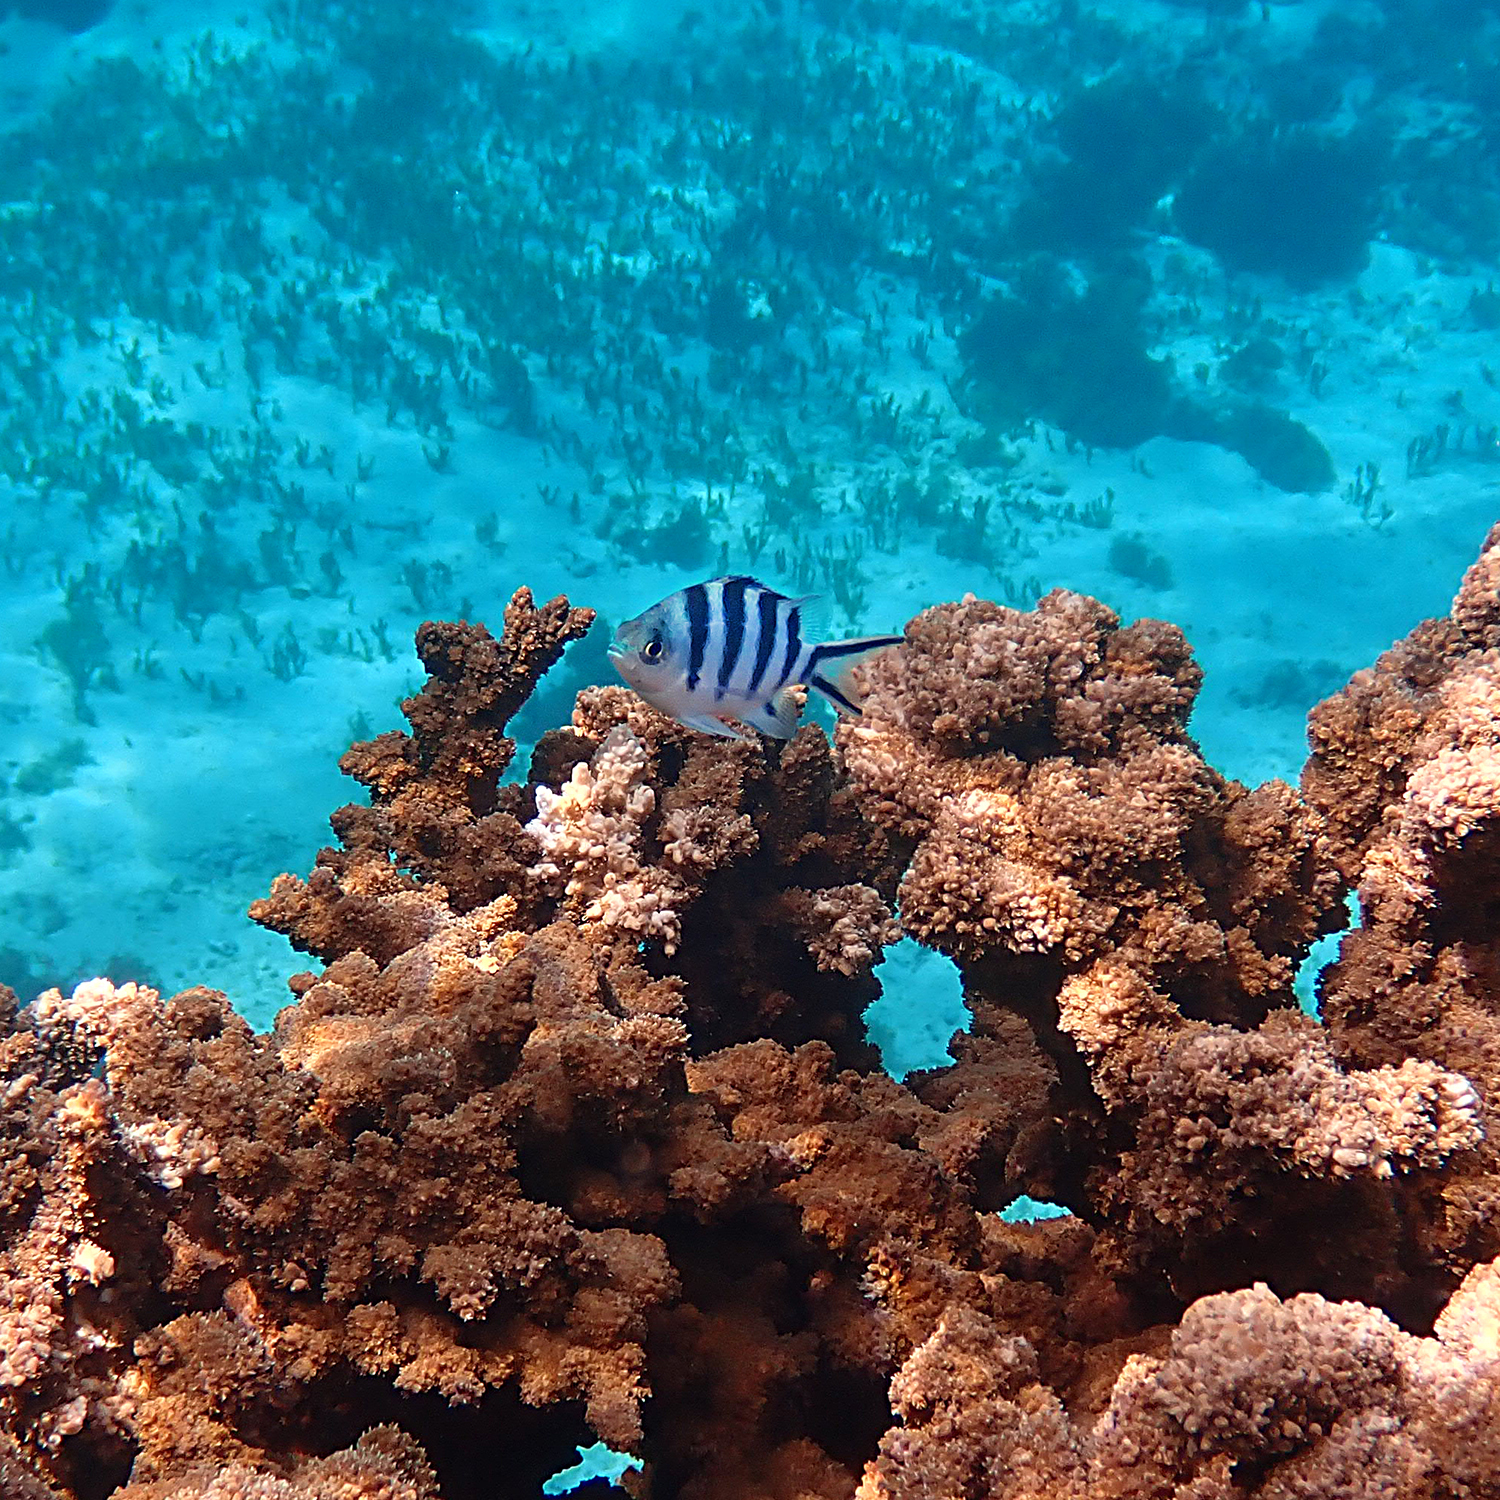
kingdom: Animalia
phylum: Chordata
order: Perciformes
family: Pomacentridae
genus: Abudefduf
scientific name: Abudefduf sexfasciatus
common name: Scissortail sergeant
